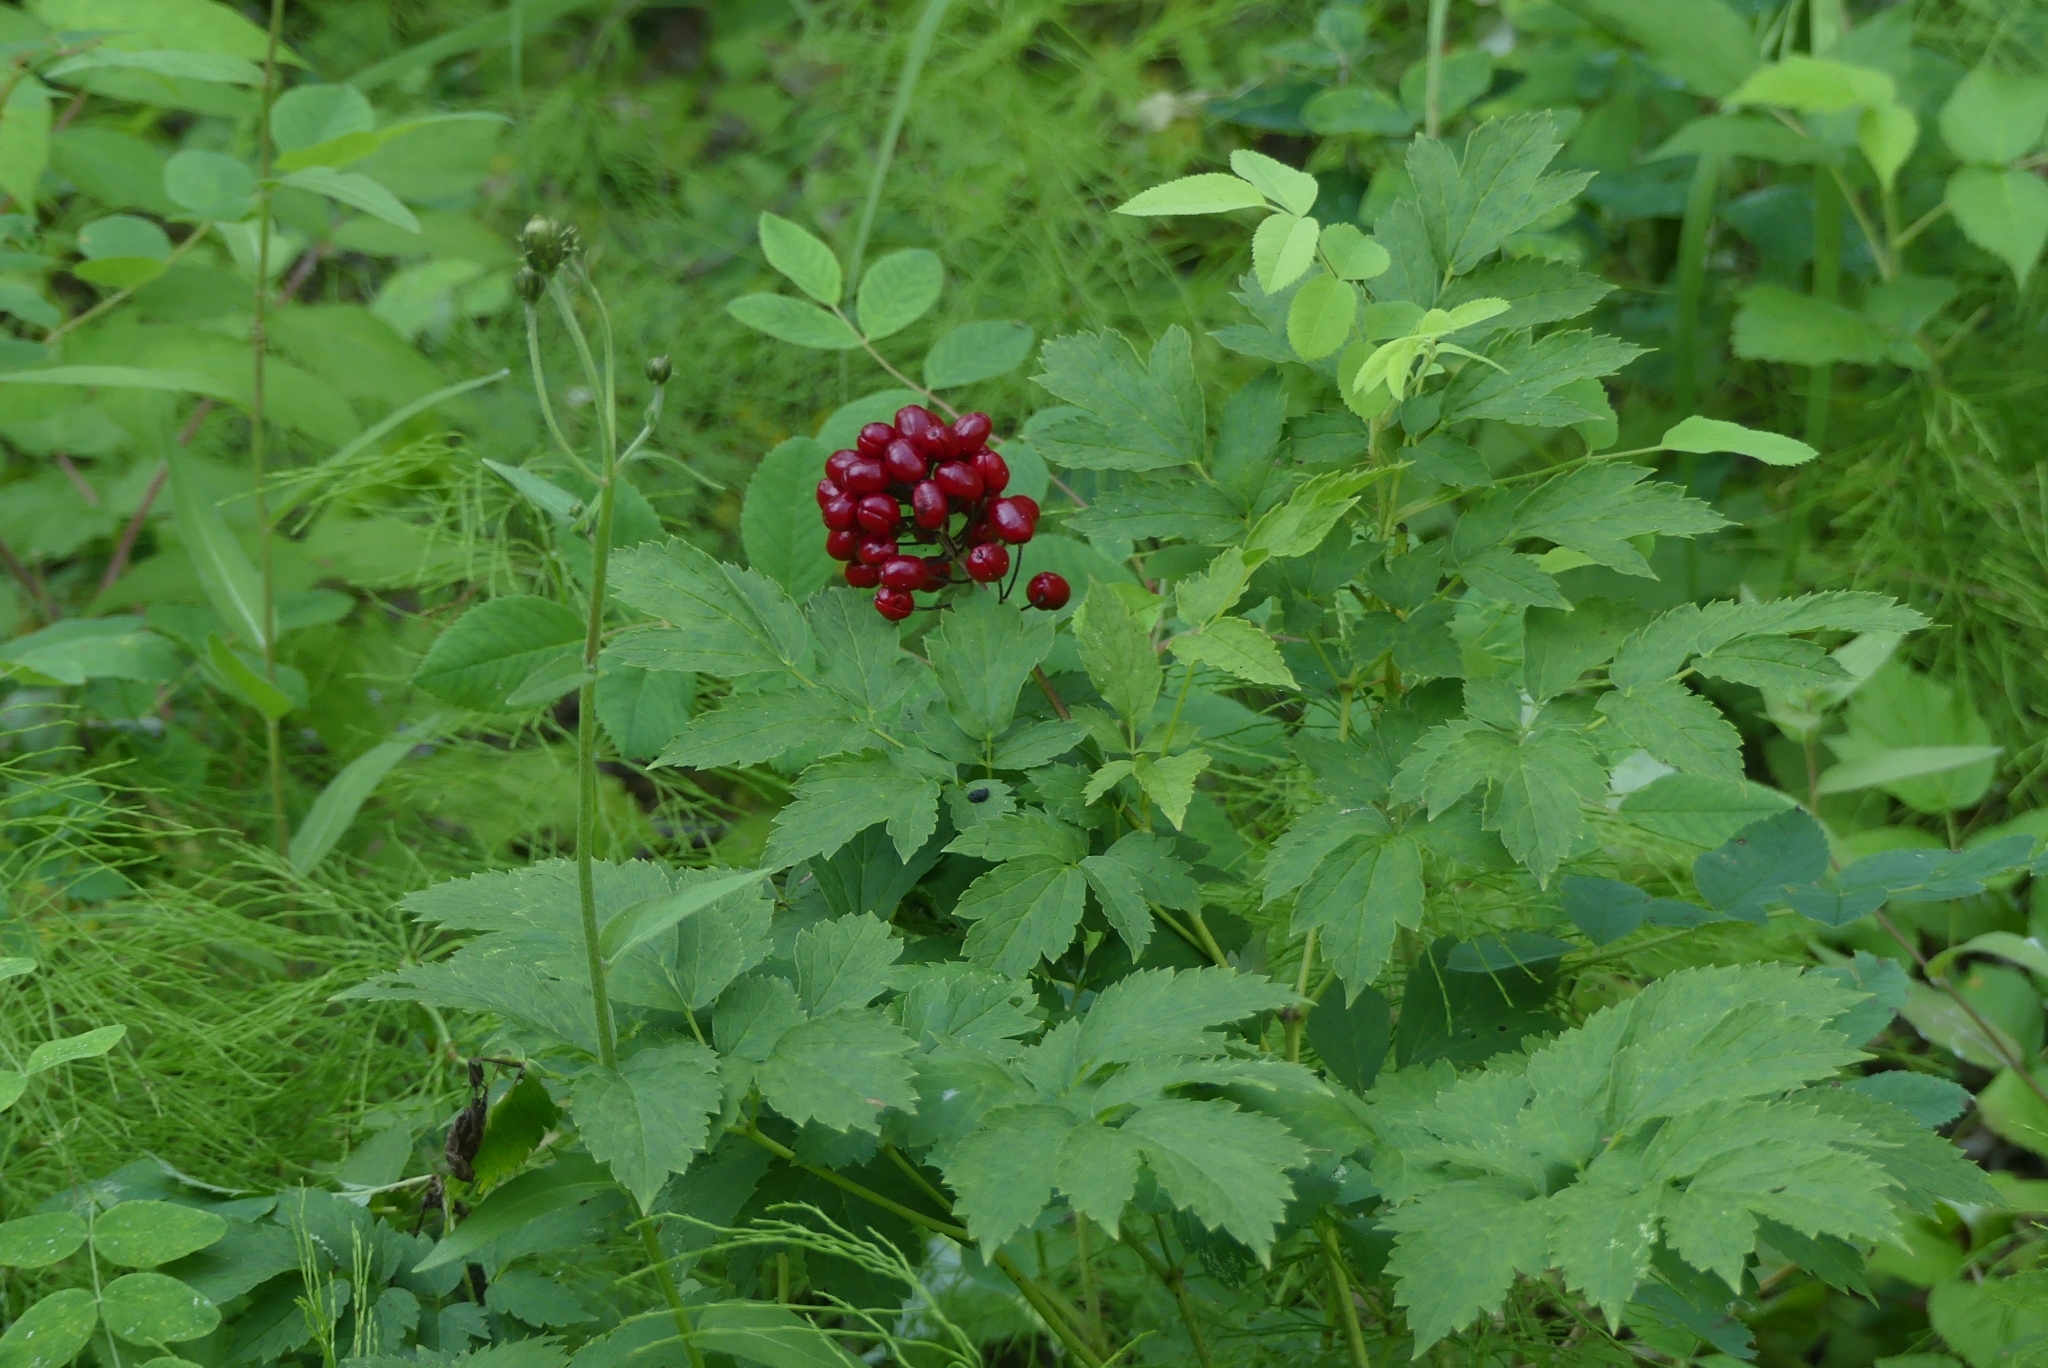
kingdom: Plantae
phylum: Tracheophyta
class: Magnoliopsida
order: Ranunculales
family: Ranunculaceae
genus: Actaea
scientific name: Actaea rubra
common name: Red baneberry
